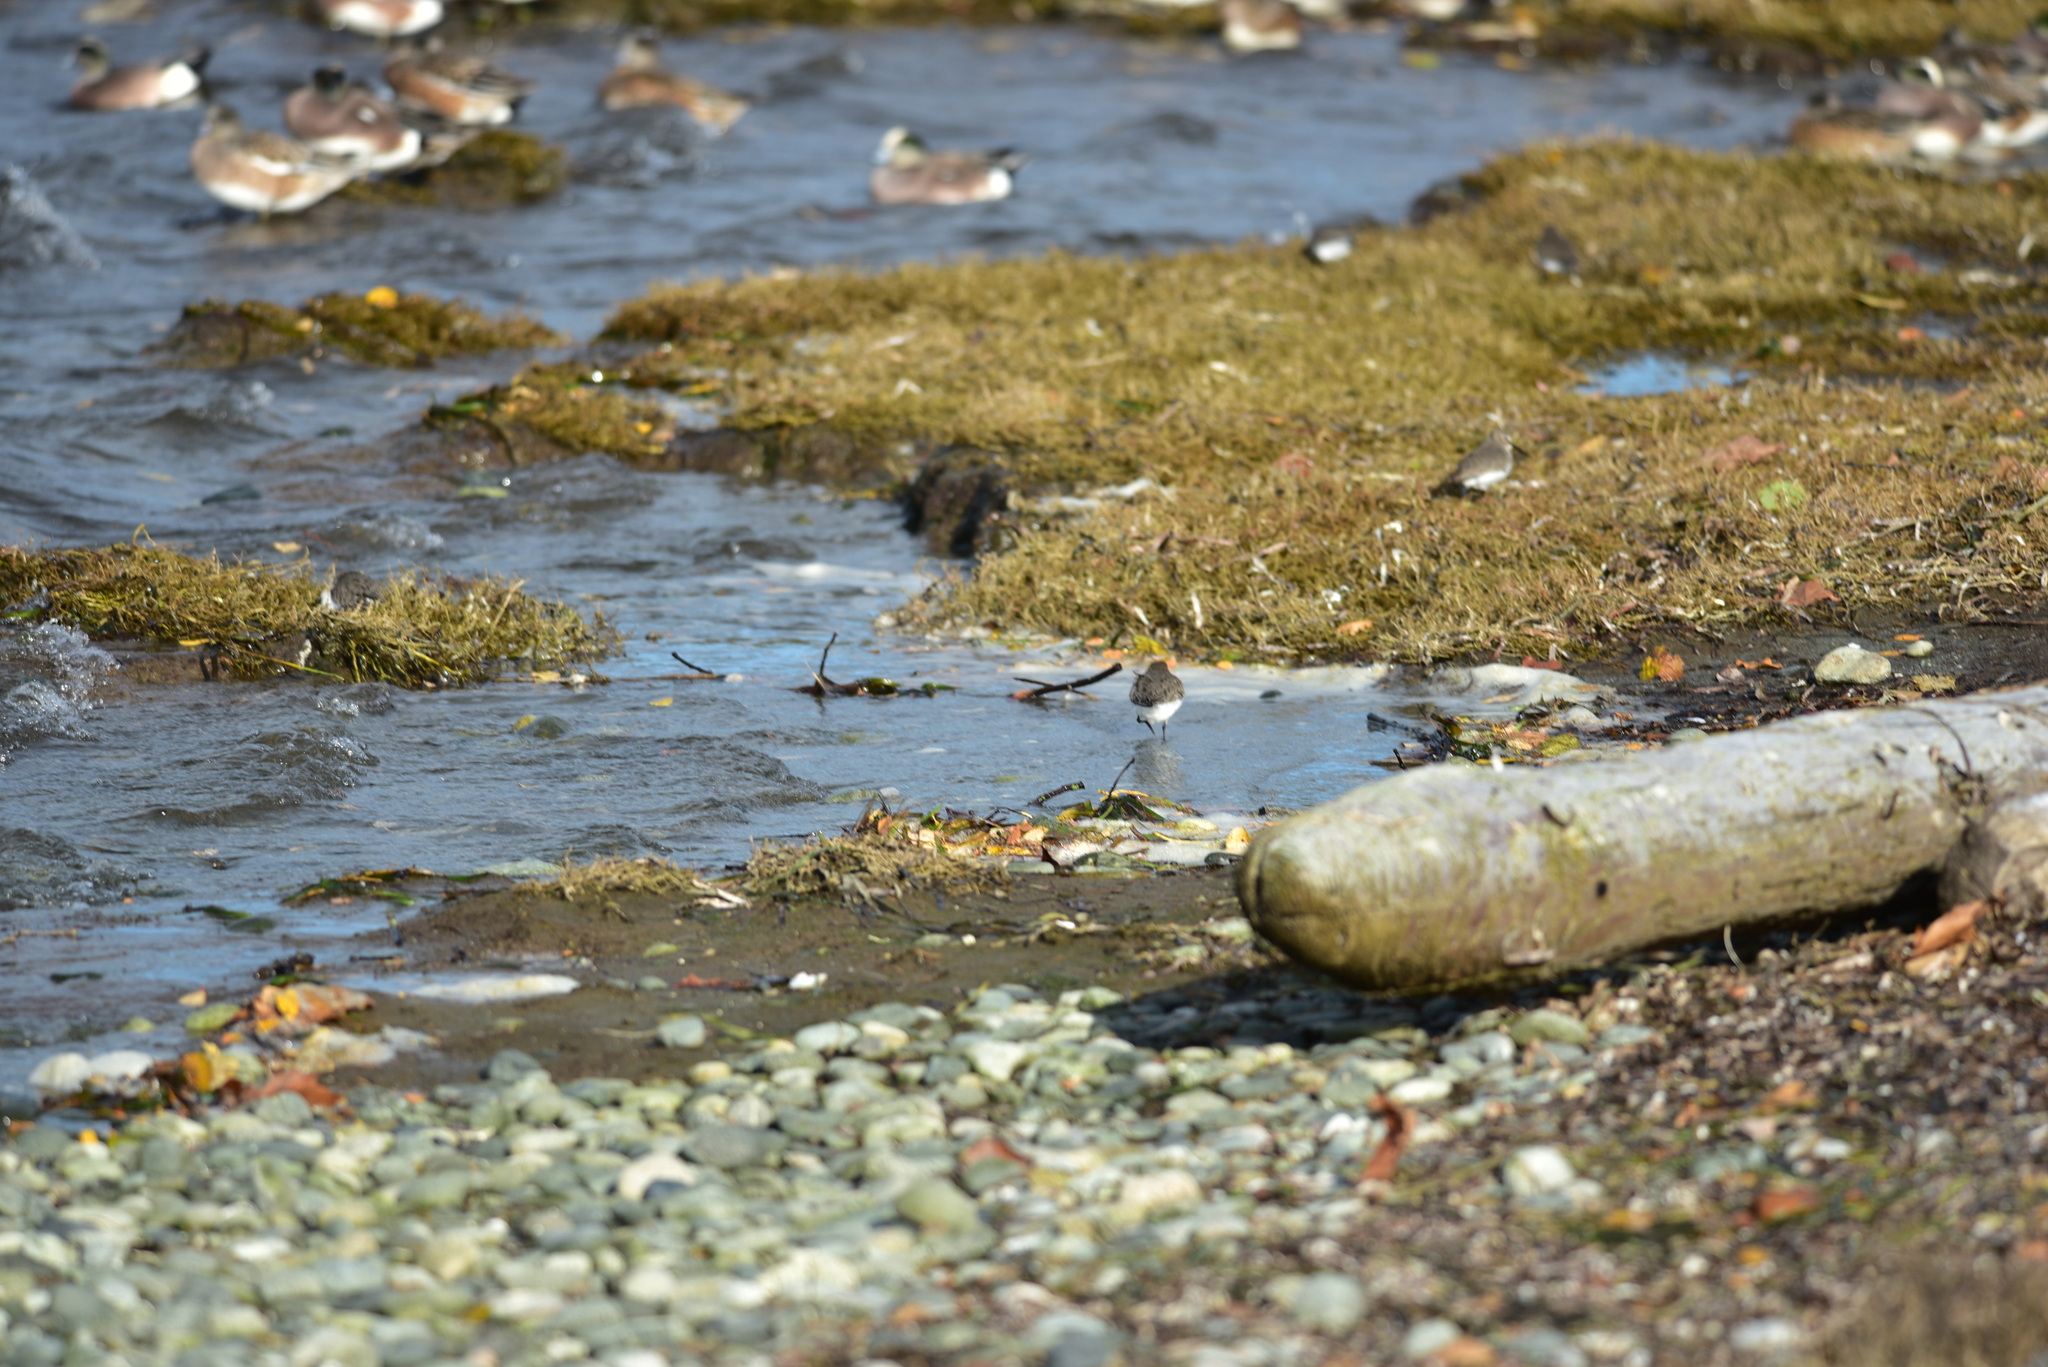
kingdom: Animalia
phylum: Chordata
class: Aves
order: Charadriiformes
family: Scolopacidae
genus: Calidris
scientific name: Calidris alpina
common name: Dunlin
